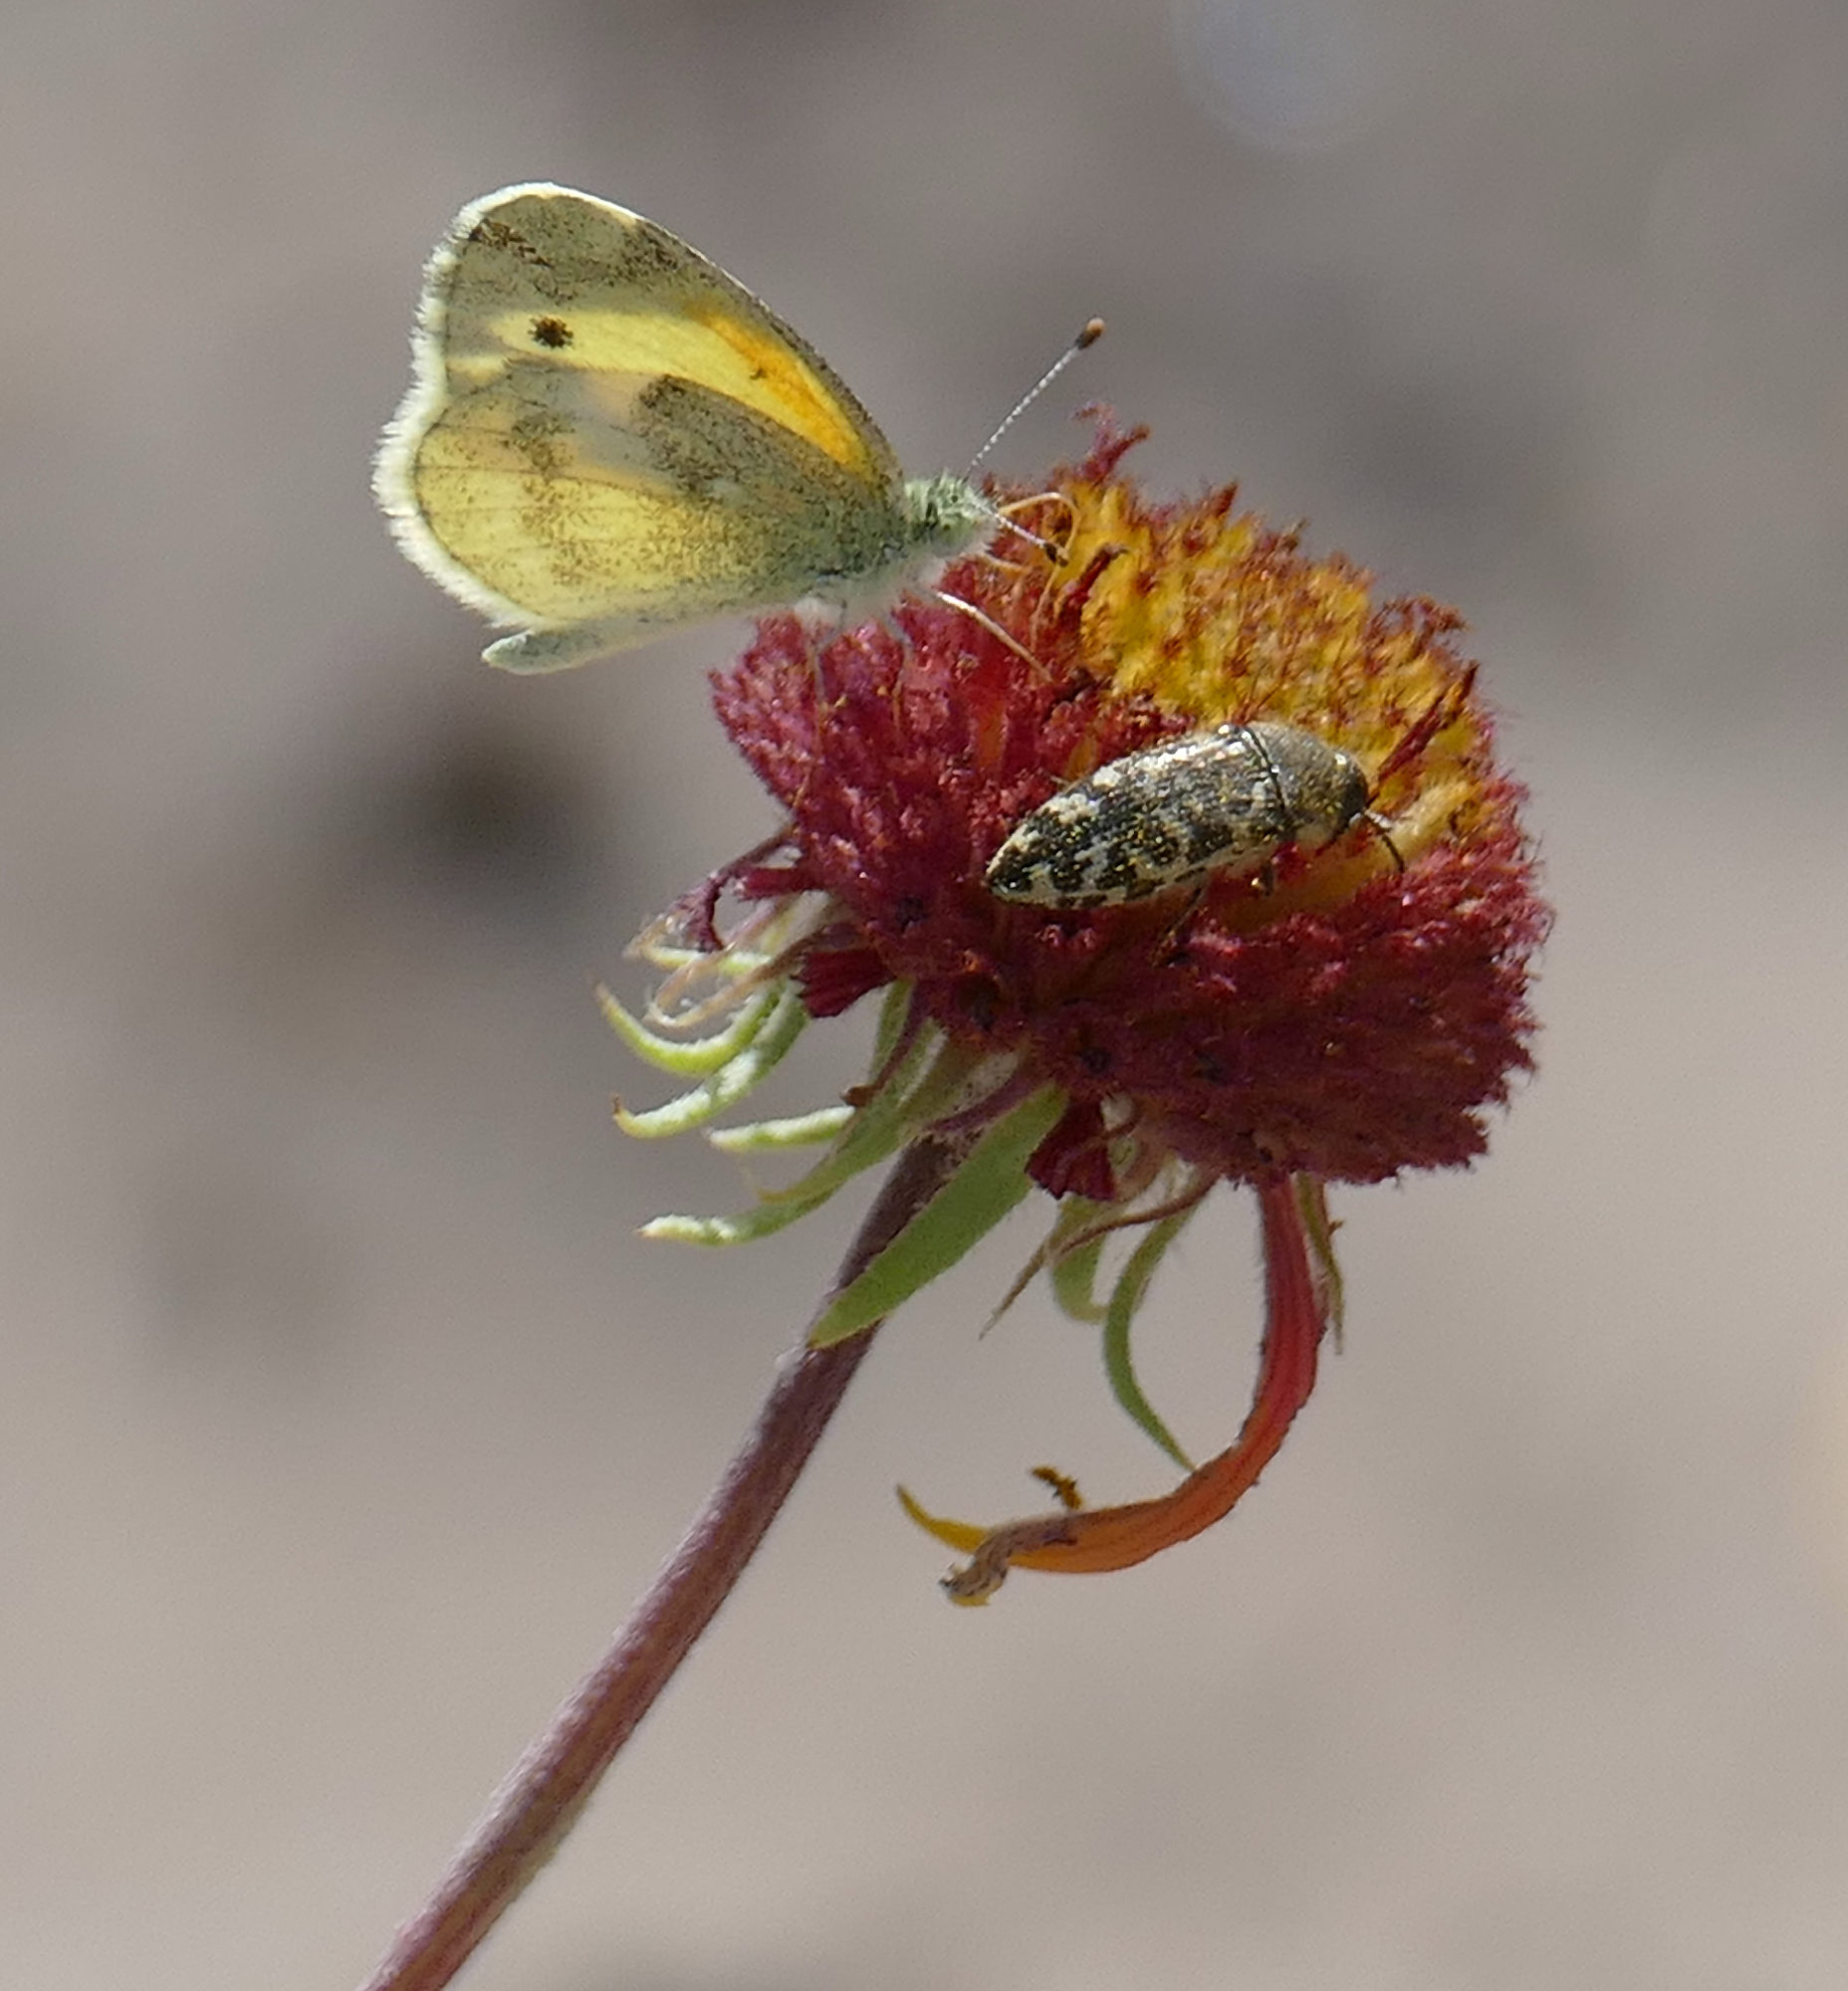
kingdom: Animalia
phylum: Arthropoda
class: Insecta
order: Lepidoptera
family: Pieridae
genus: Nathalis
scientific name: Nathalis iole
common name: Dainty sulphur
